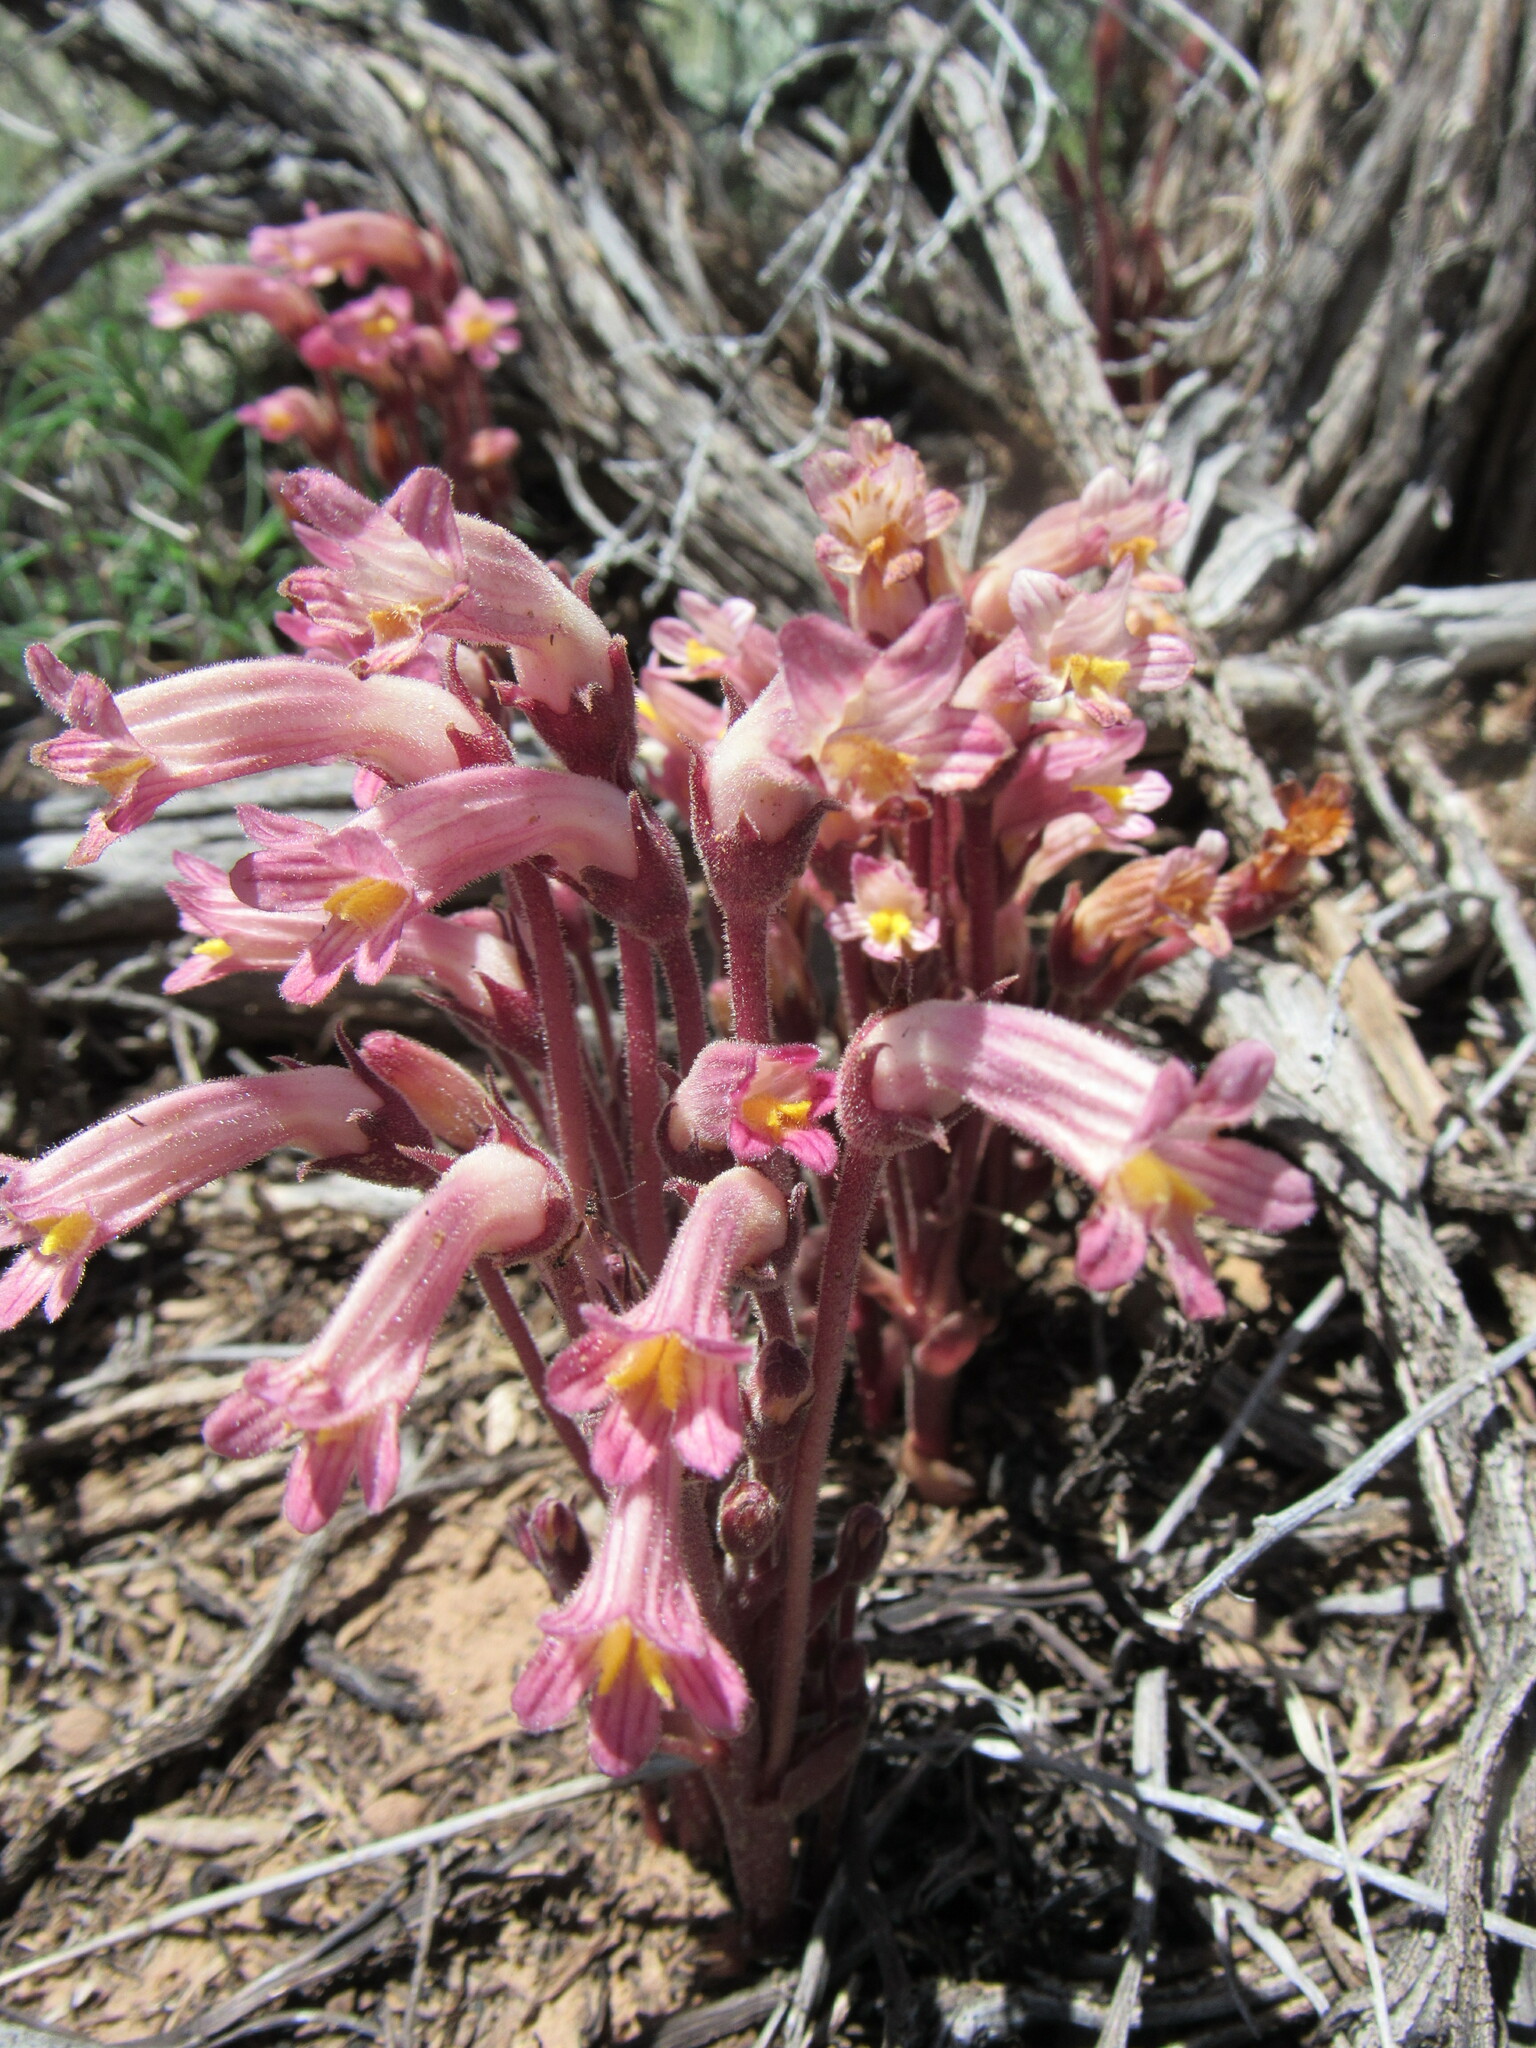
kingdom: Plantae
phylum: Tracheophyta
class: Magnoliopsida
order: Lamiales
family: Orobanchaceae
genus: Aphyllon
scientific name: Aphyllon fasciculatum
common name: Clustered broomrape
